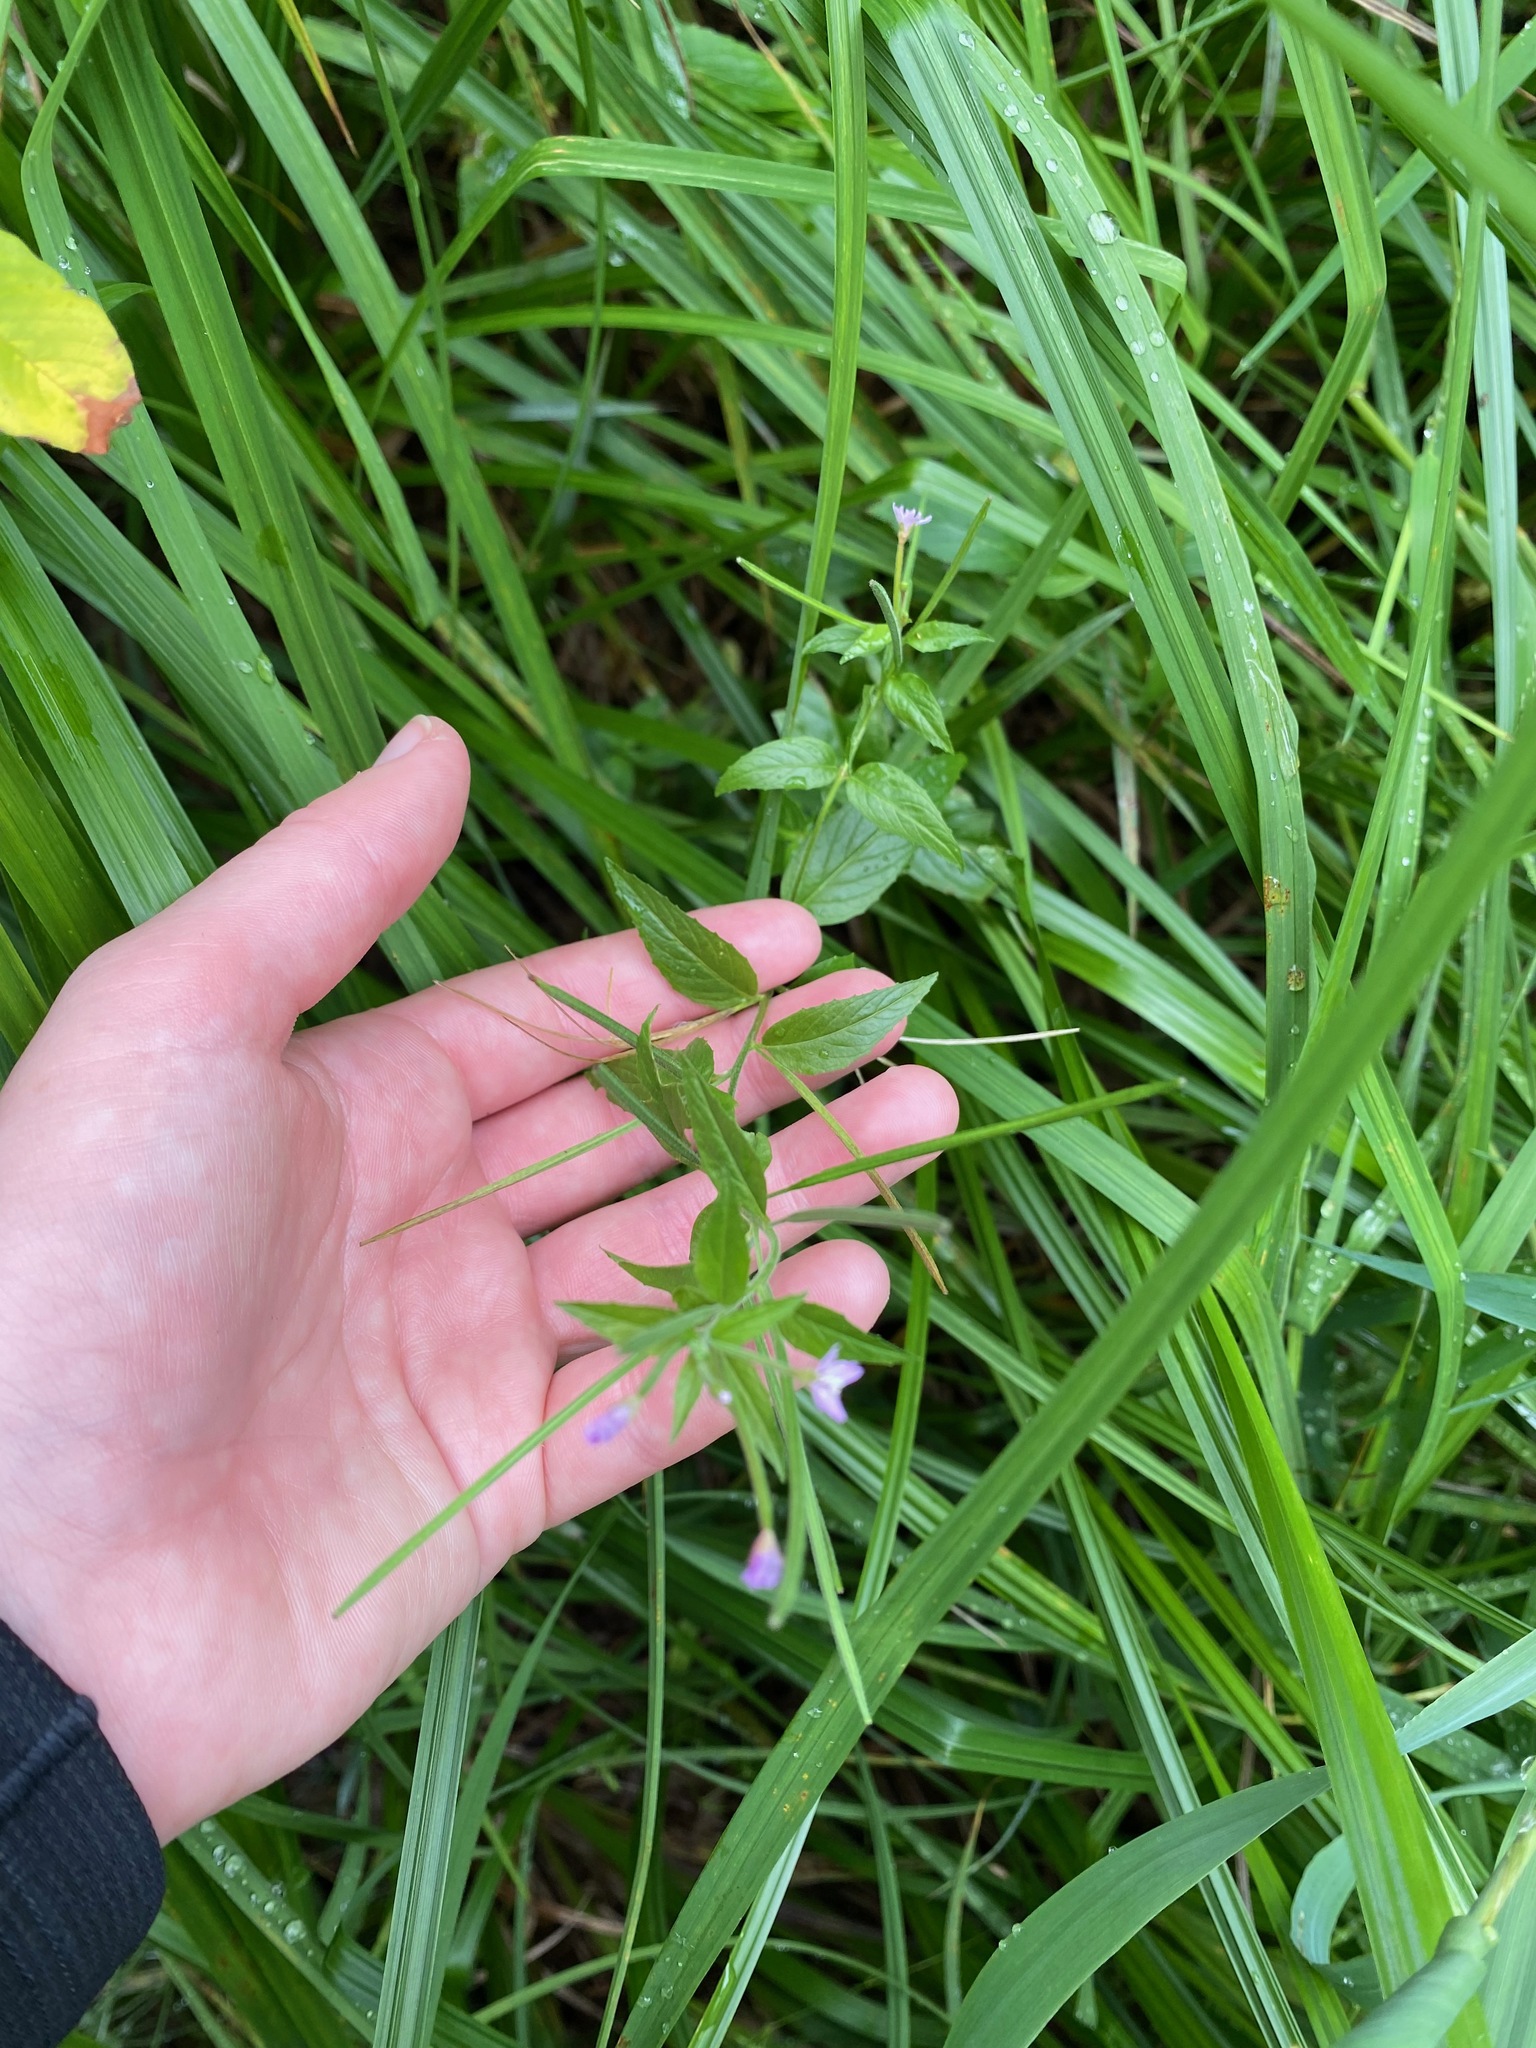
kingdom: Plantae
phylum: Tracheophyta
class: Magnoliopsida
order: Myrtales
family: Onagraceae
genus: Epilobium
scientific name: Epilobium ciliatum
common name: American willowherb
